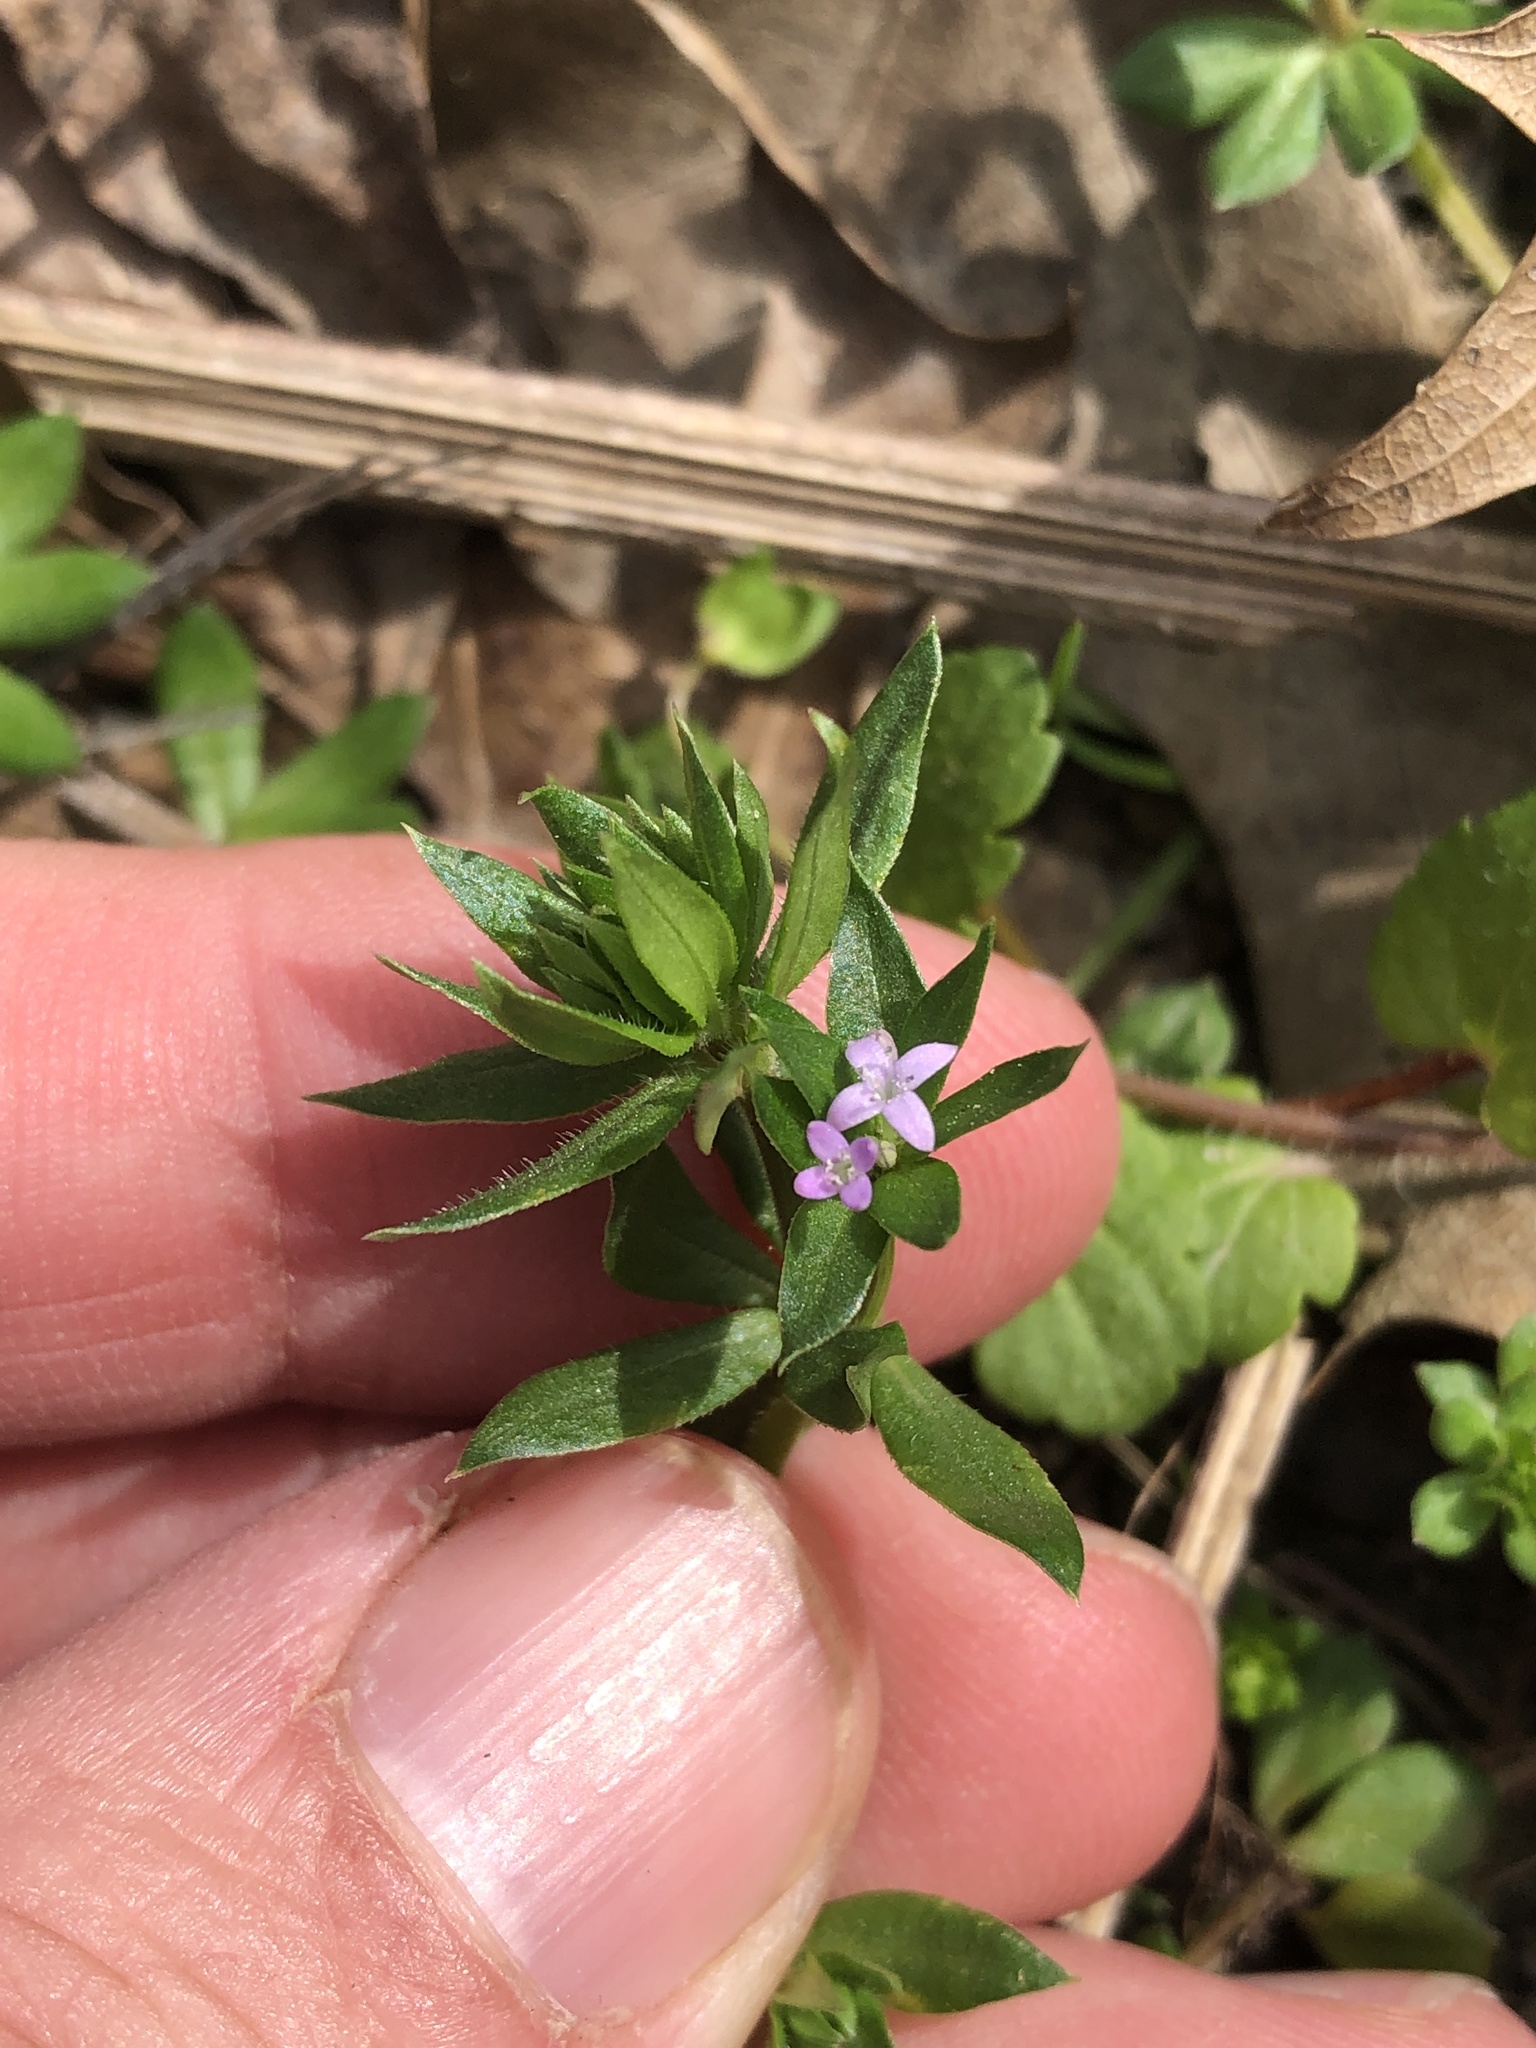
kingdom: Plantae
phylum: Tracheophyta
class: Magnoliopsida
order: Gentianales
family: Rubiaceae
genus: Sherardia
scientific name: Sherardia arvensis
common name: Field madder
